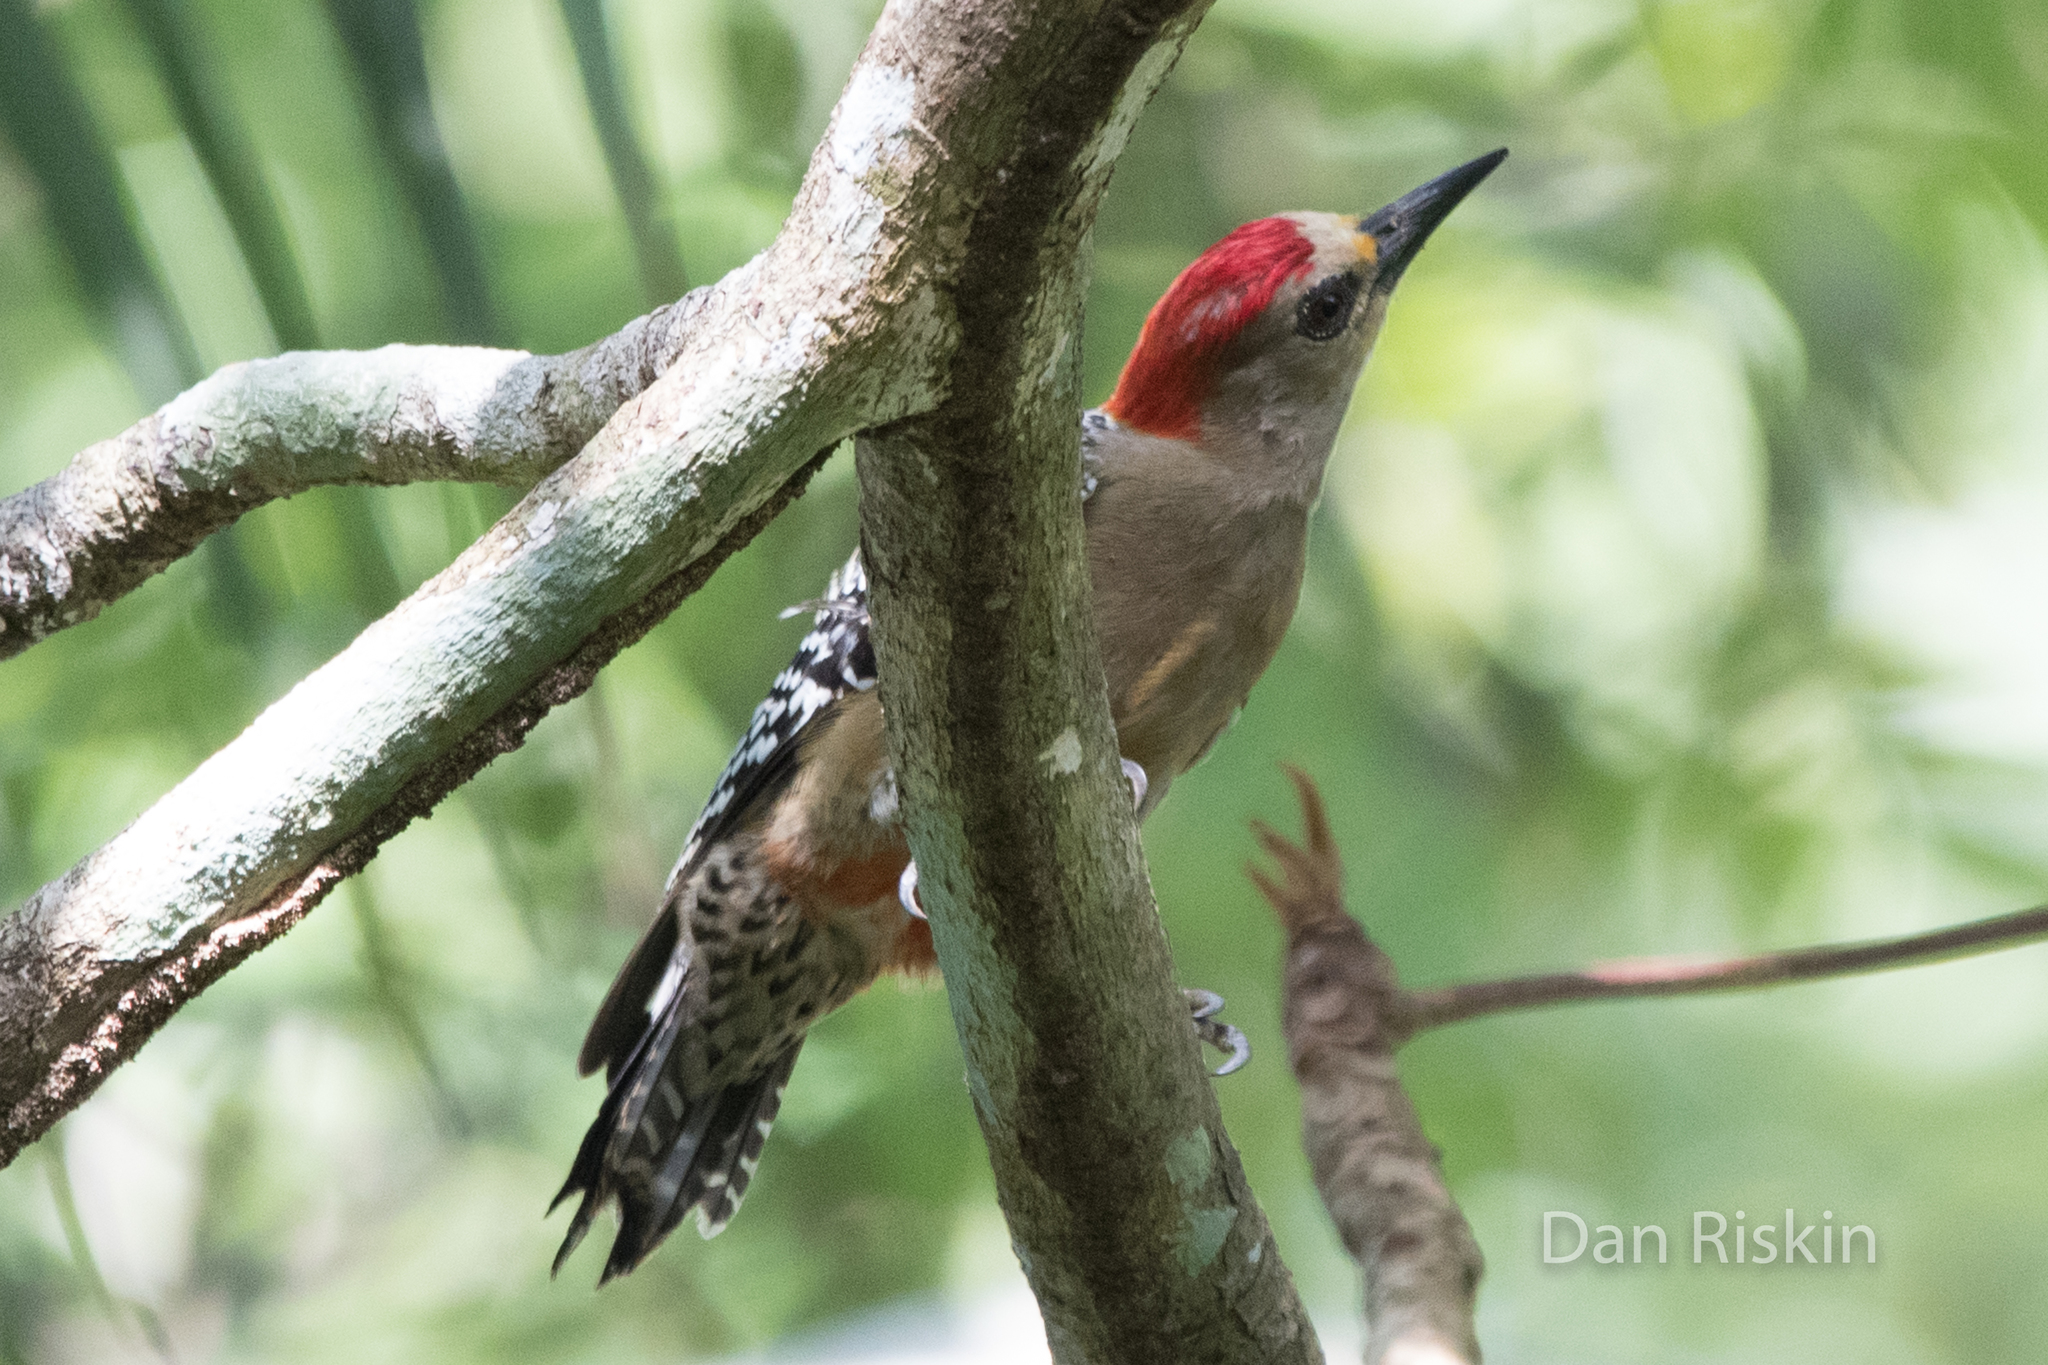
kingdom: Animalia
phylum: Chordata
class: Aves
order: Piciformes
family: Picidae
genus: Melanerpes
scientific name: Melanerpes rubricapillus
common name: Red-crowned woodpecker
